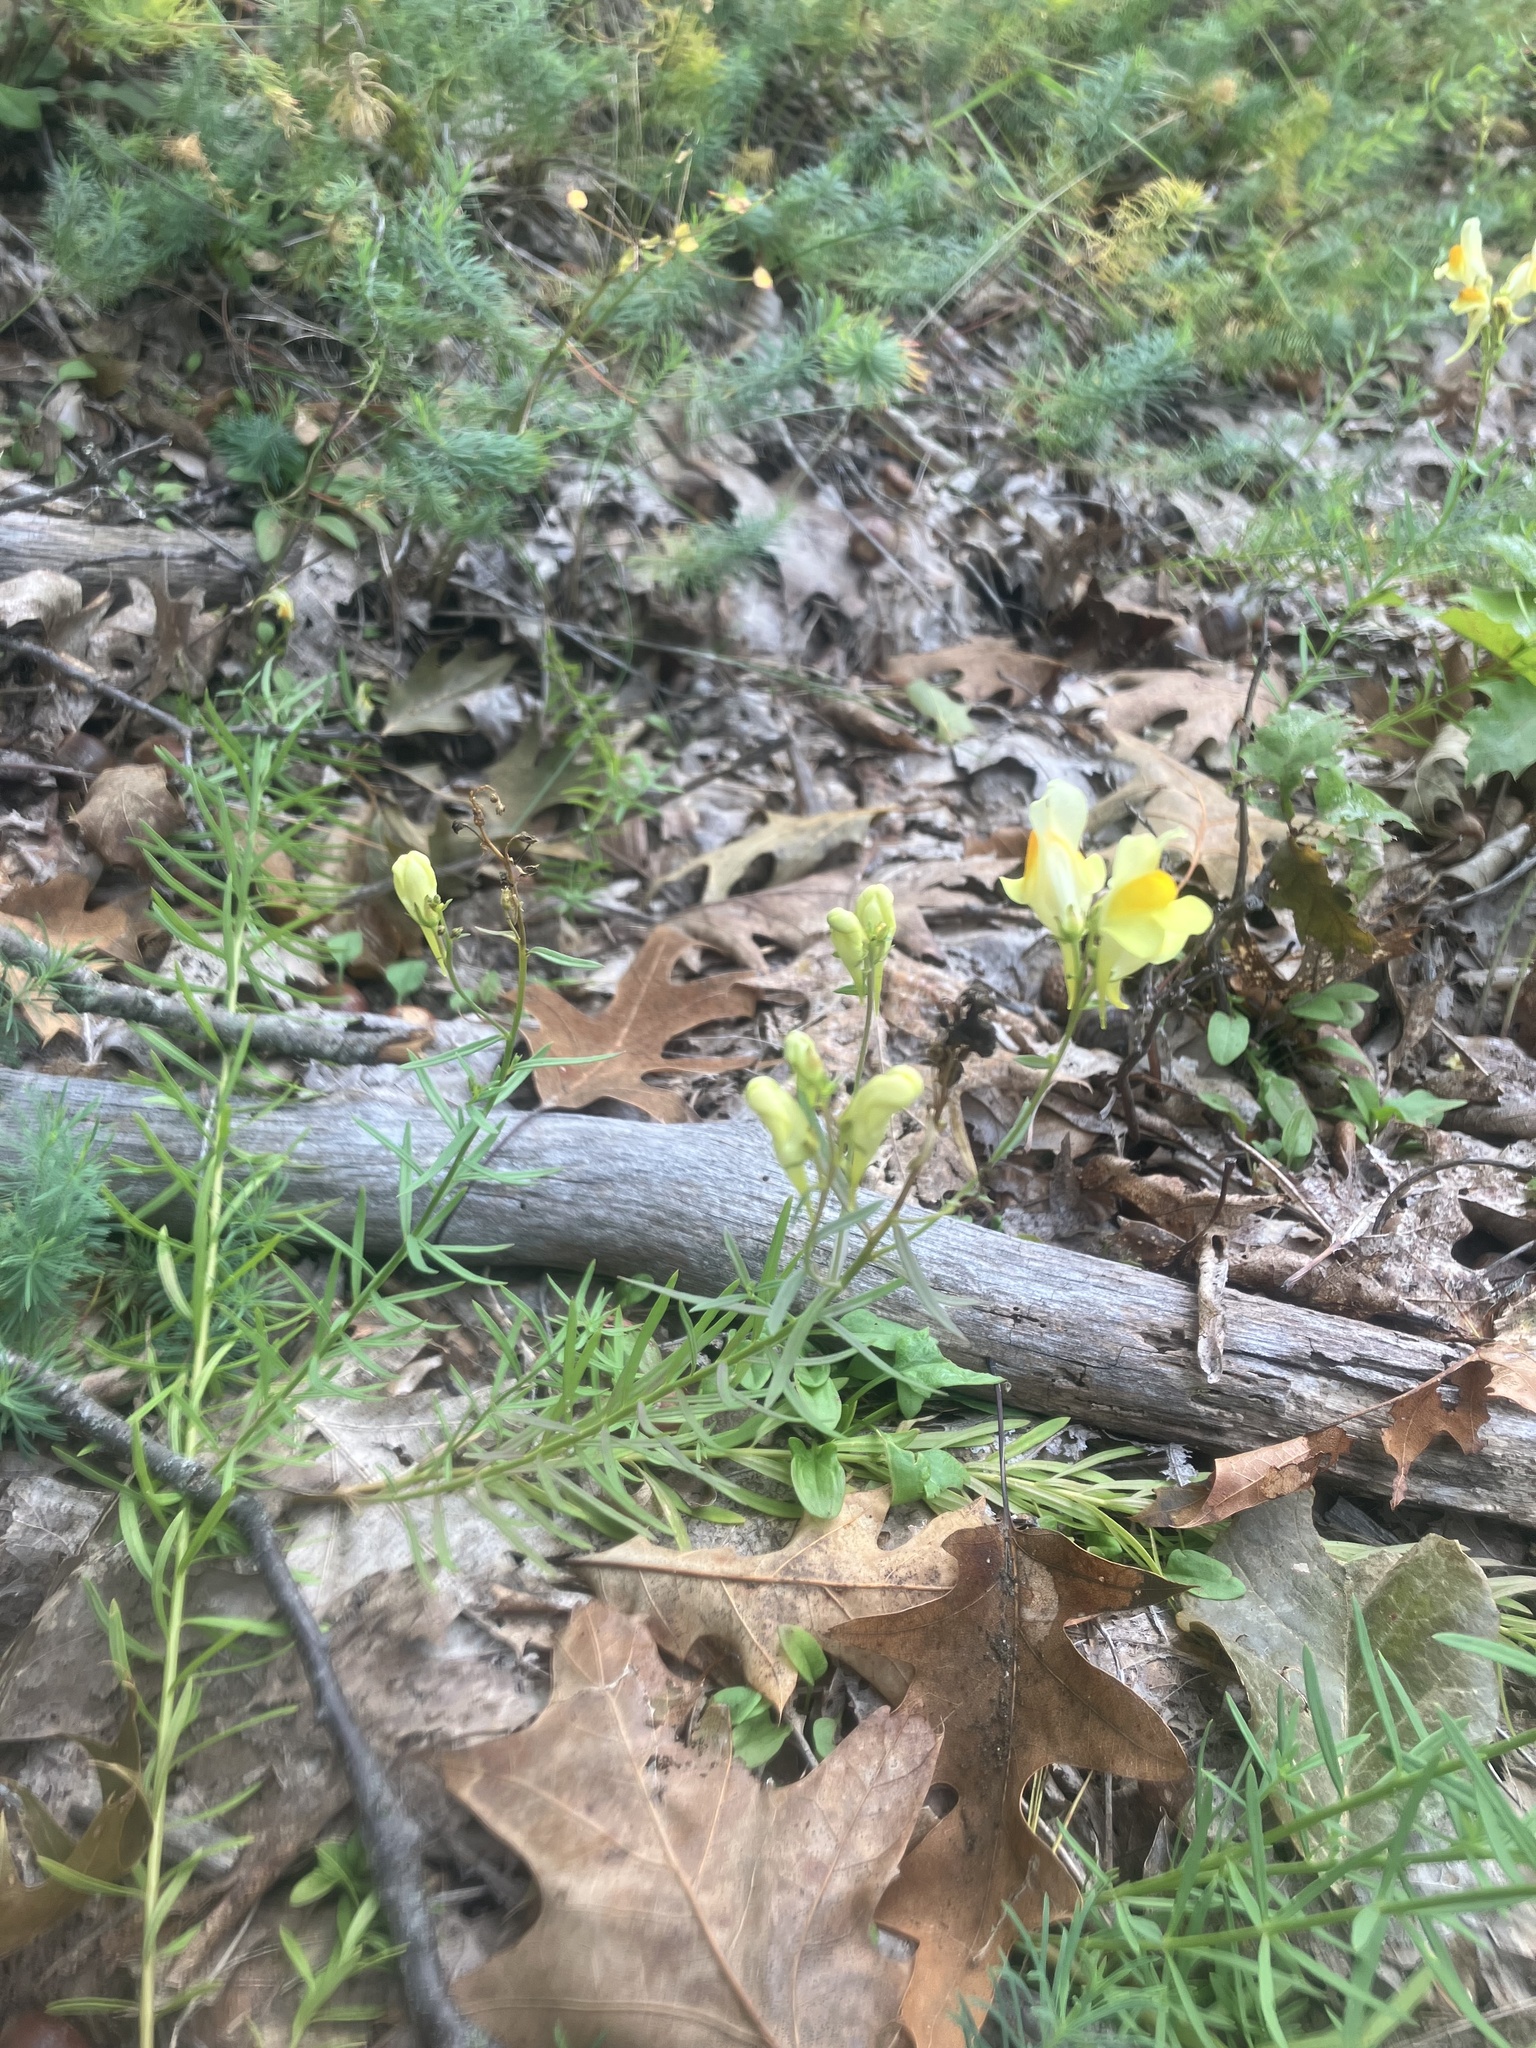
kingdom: Plantae
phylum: Tracheophyta
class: Magnoliopsida
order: Lamiales
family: Plantaginaceae
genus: Linaria
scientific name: Linaria vulgaris
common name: Butter and eggs
